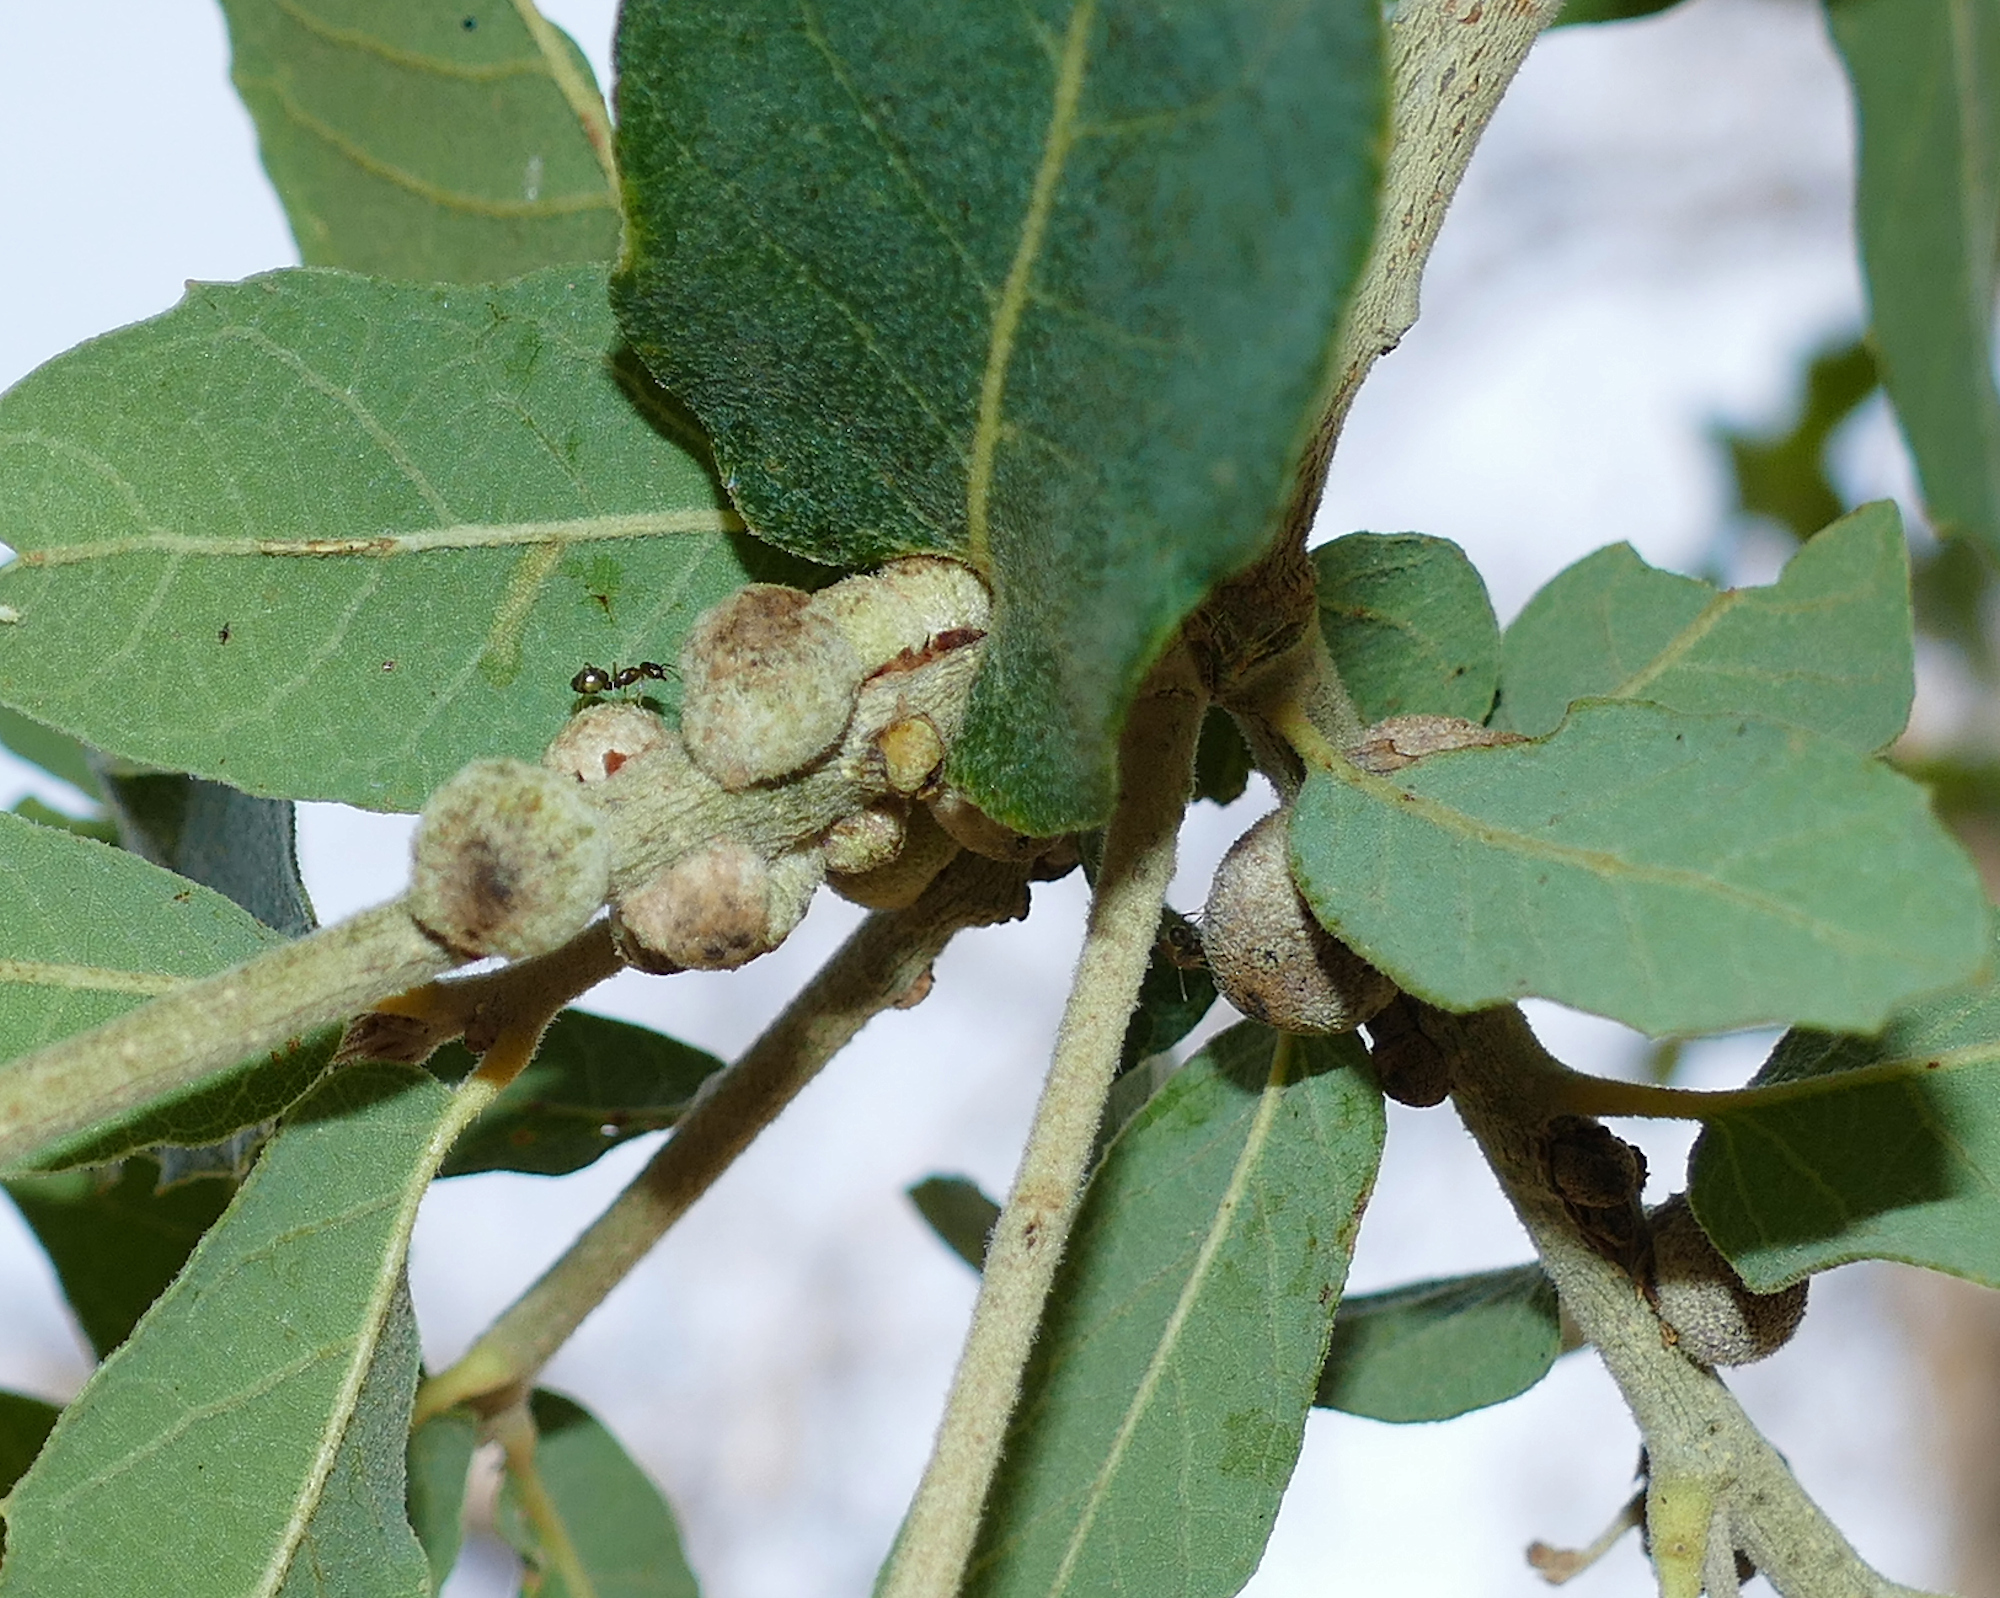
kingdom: Animalia
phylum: Arthropoda
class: Insecta
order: Hymenoptera
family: Cynipidae
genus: Disholcaspis
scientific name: Disholcaspis
